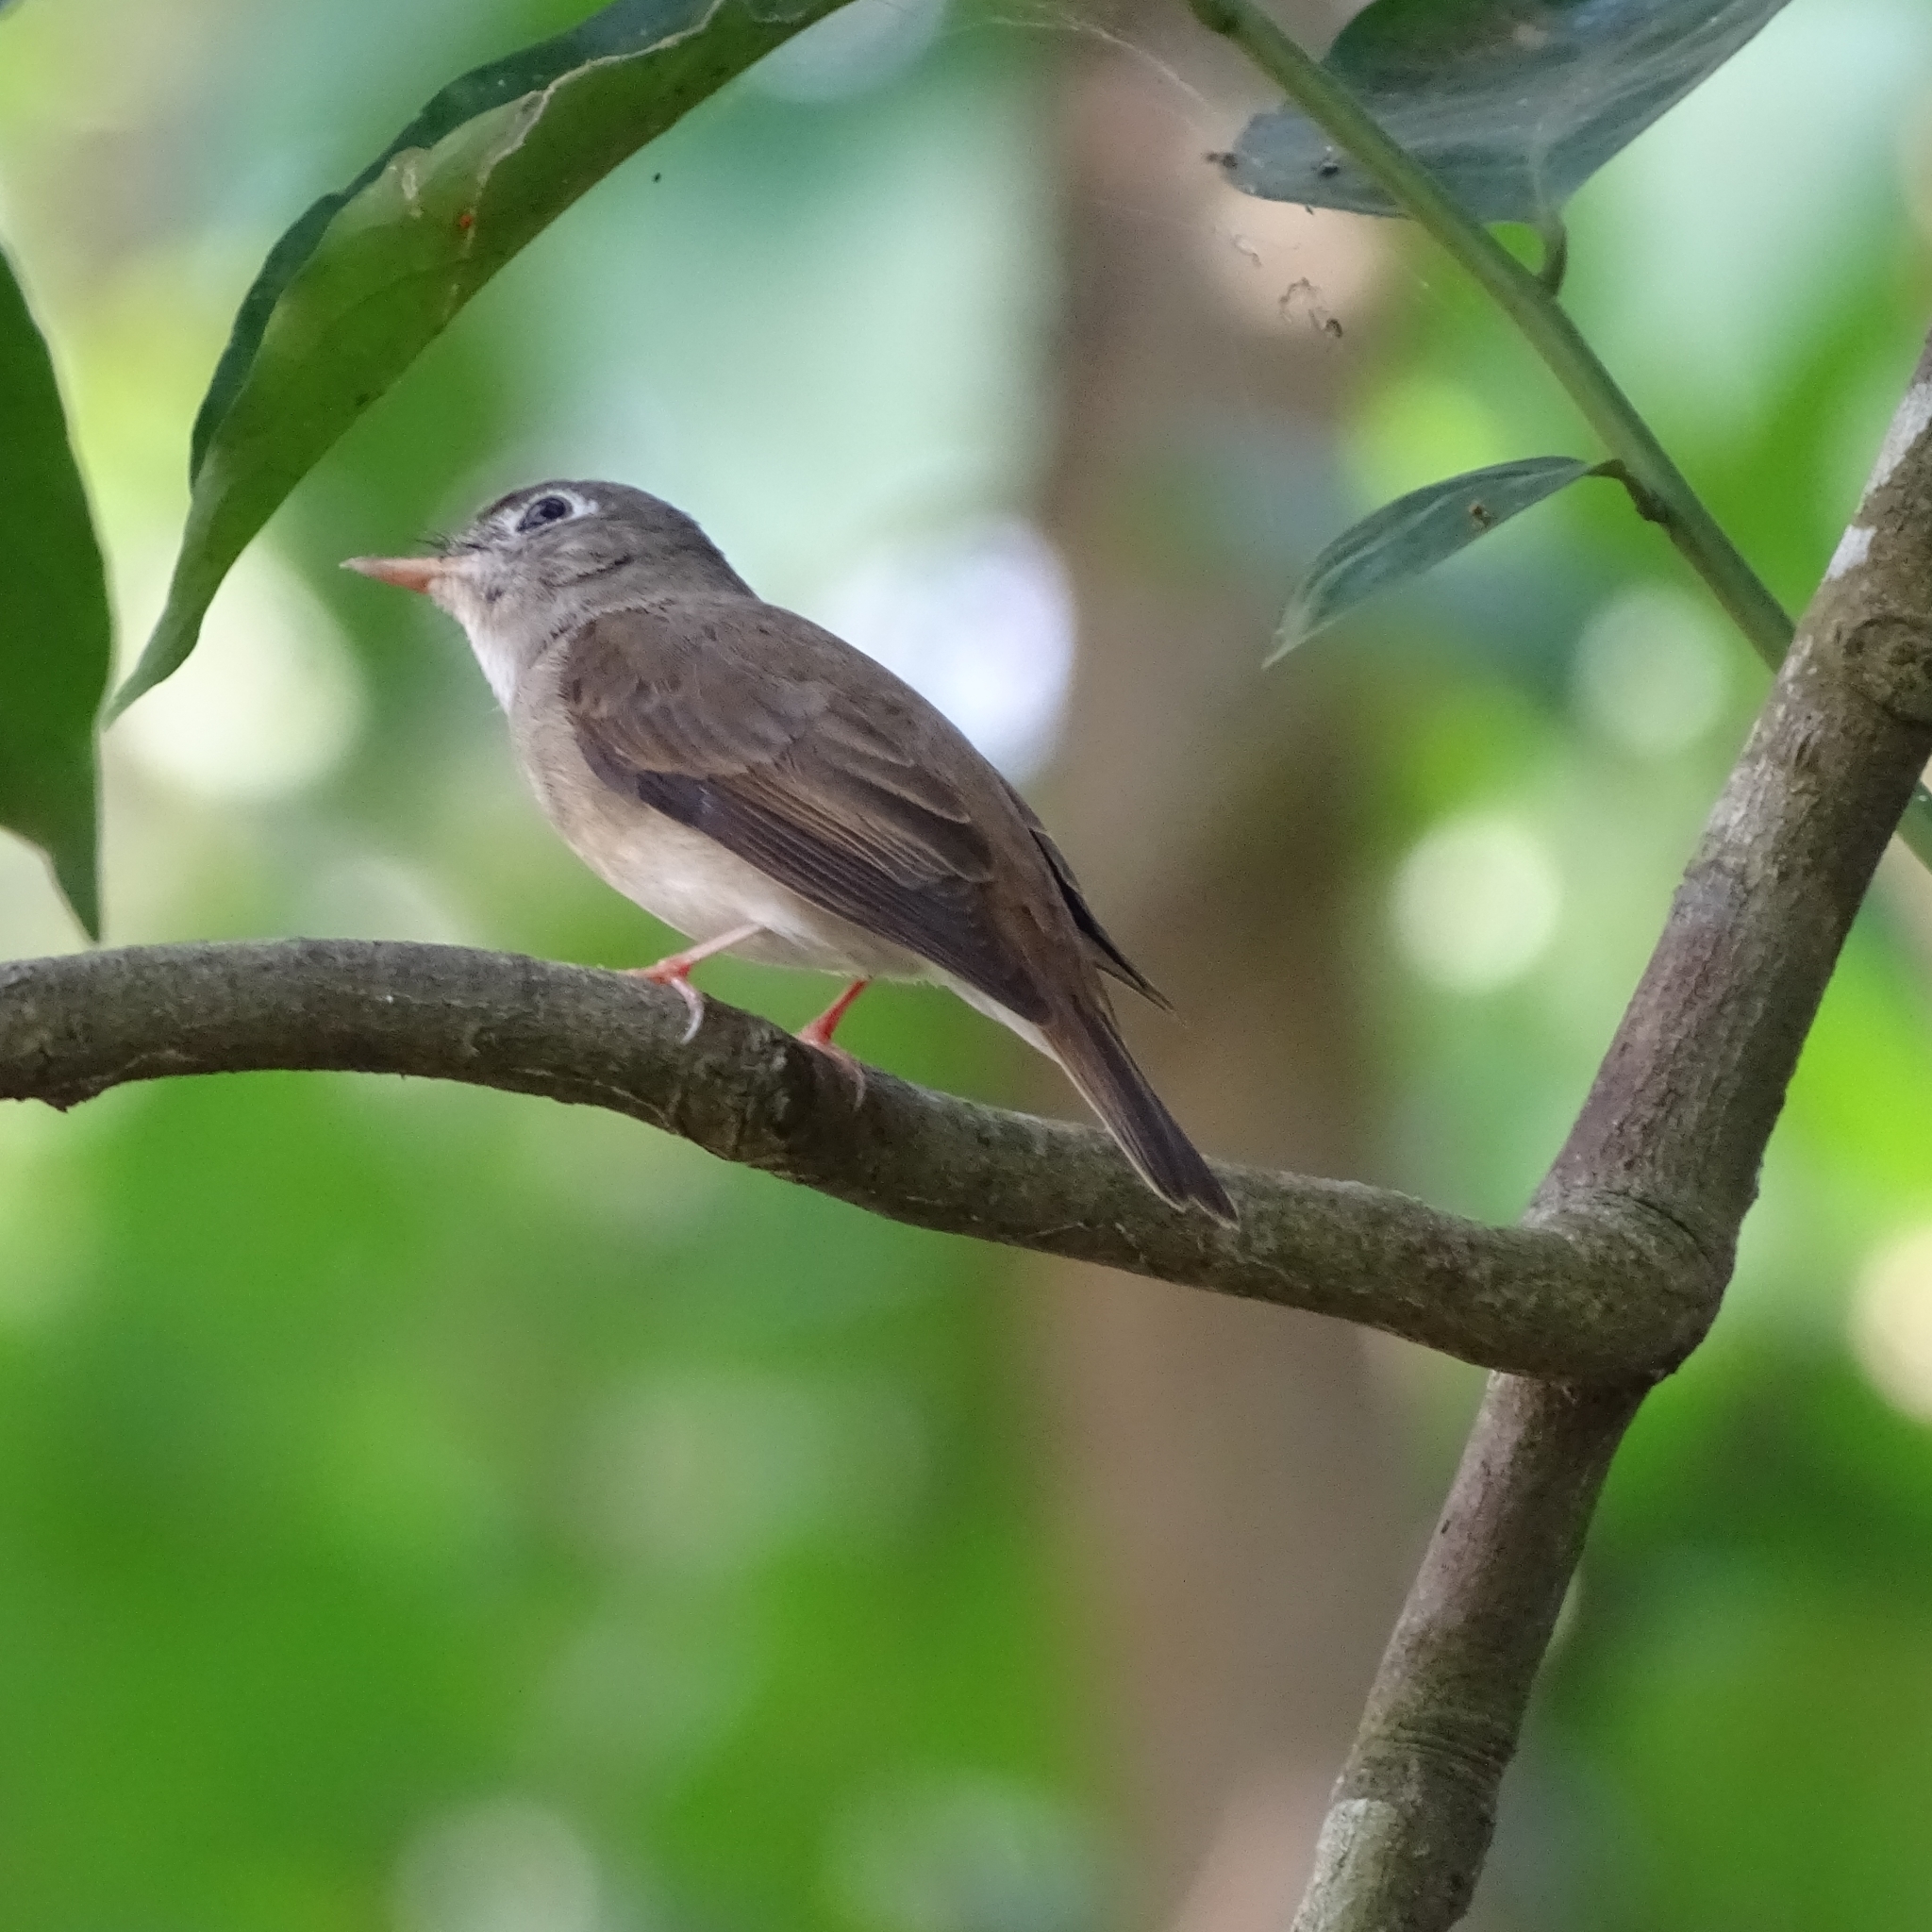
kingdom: Animalia
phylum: Chordata
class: Aves
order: Passeriformes
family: Muscicapidae
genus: Muscicapa
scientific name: Muscicapa muttui
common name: Brown-breasted flycatcher
